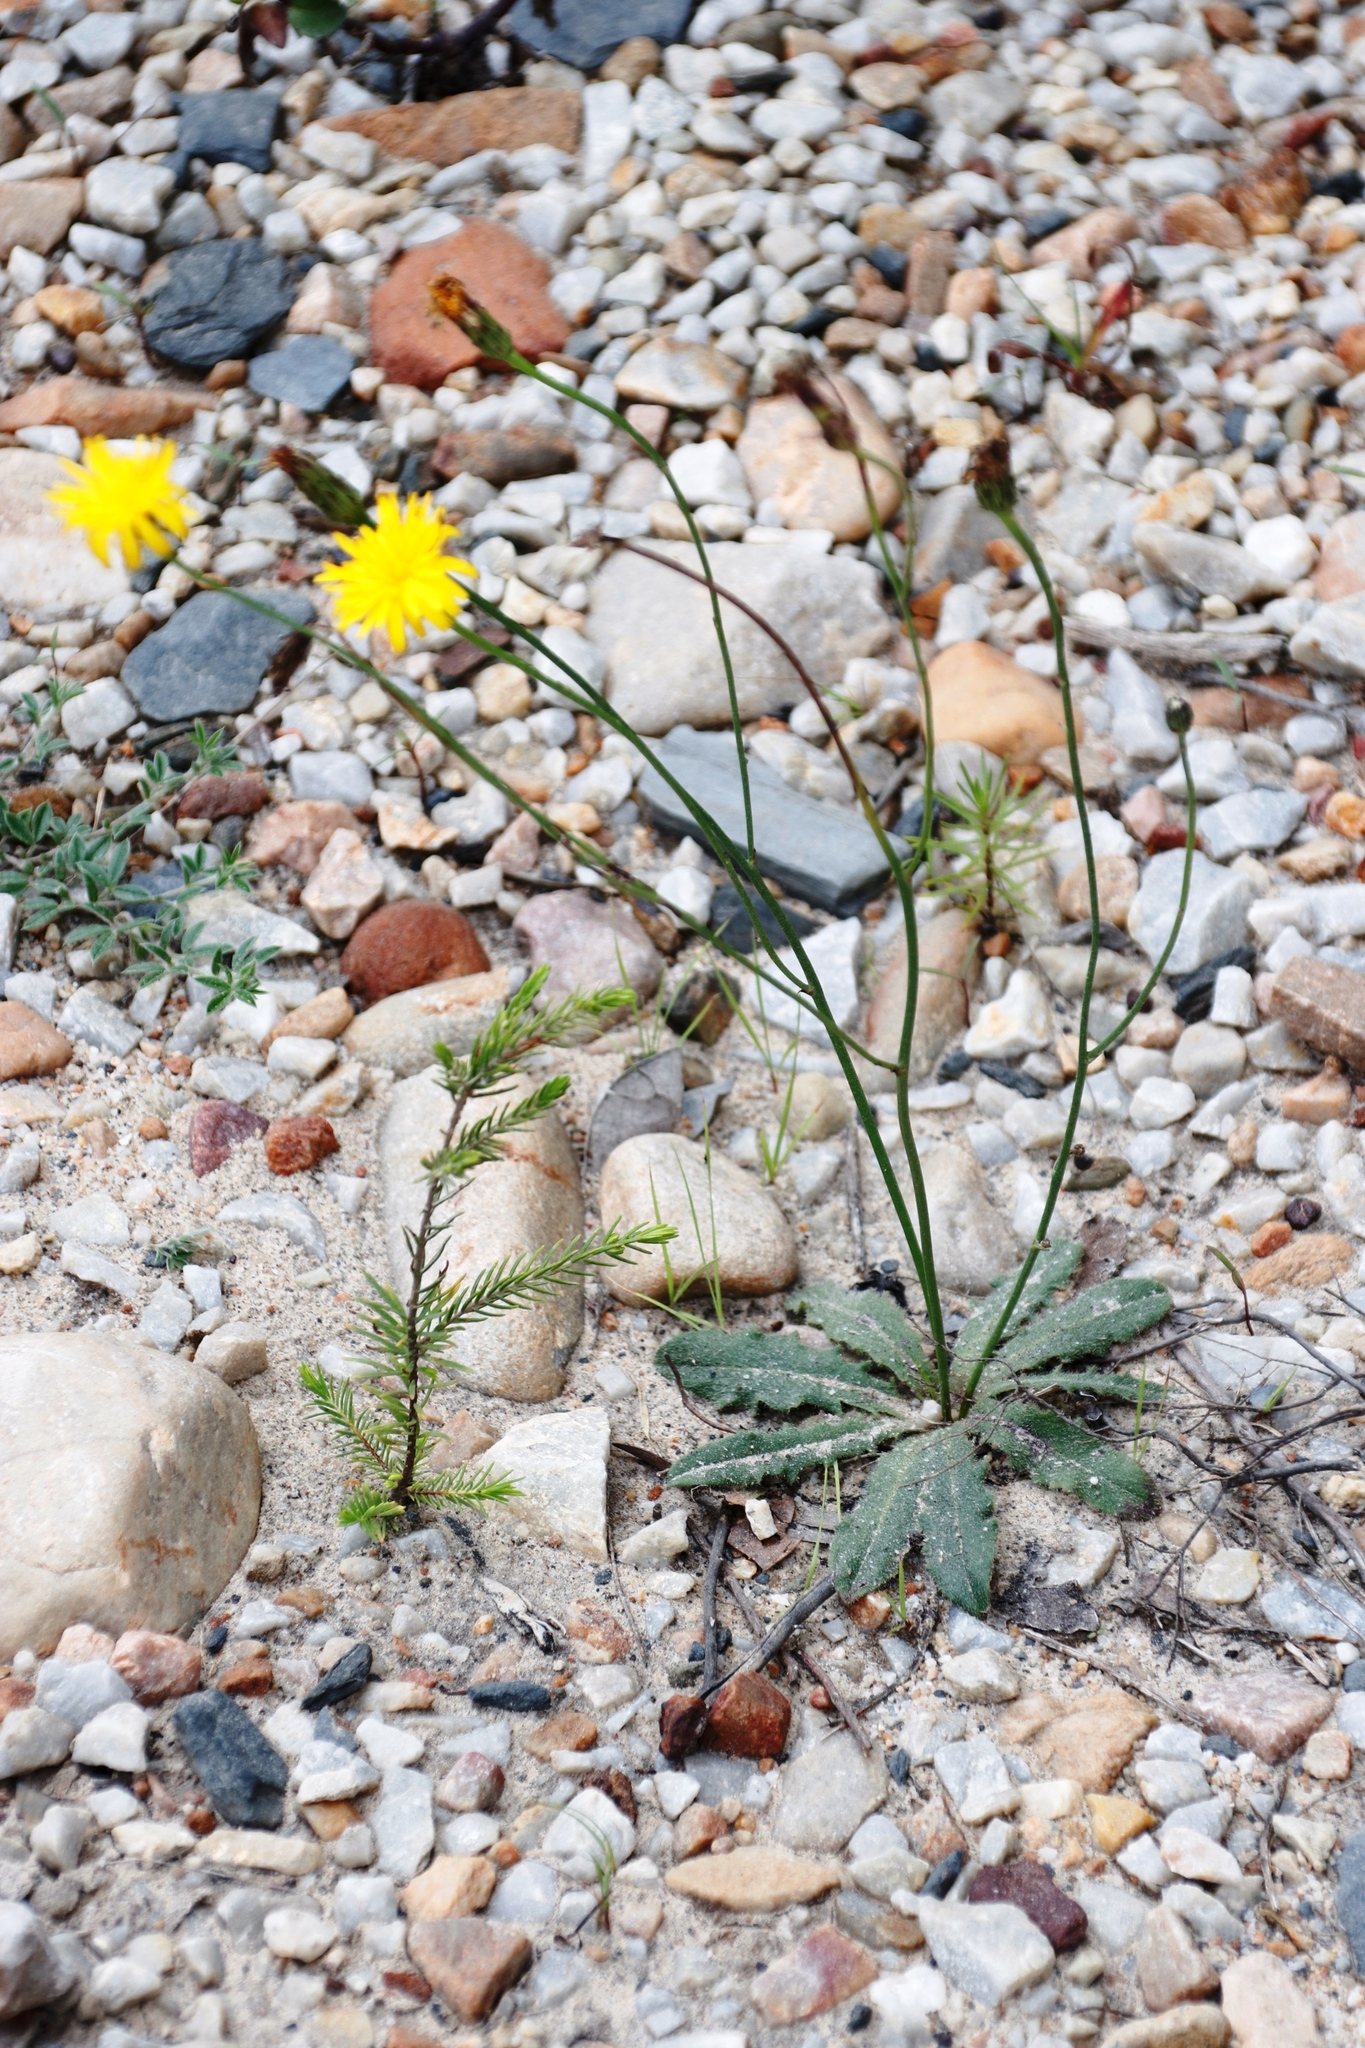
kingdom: Plantae
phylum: Tracheophyta
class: Magnoliopsida
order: Asterales
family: Asteraceae
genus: Hypochaeris
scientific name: Hypochaeris radicata
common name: Flatweed
